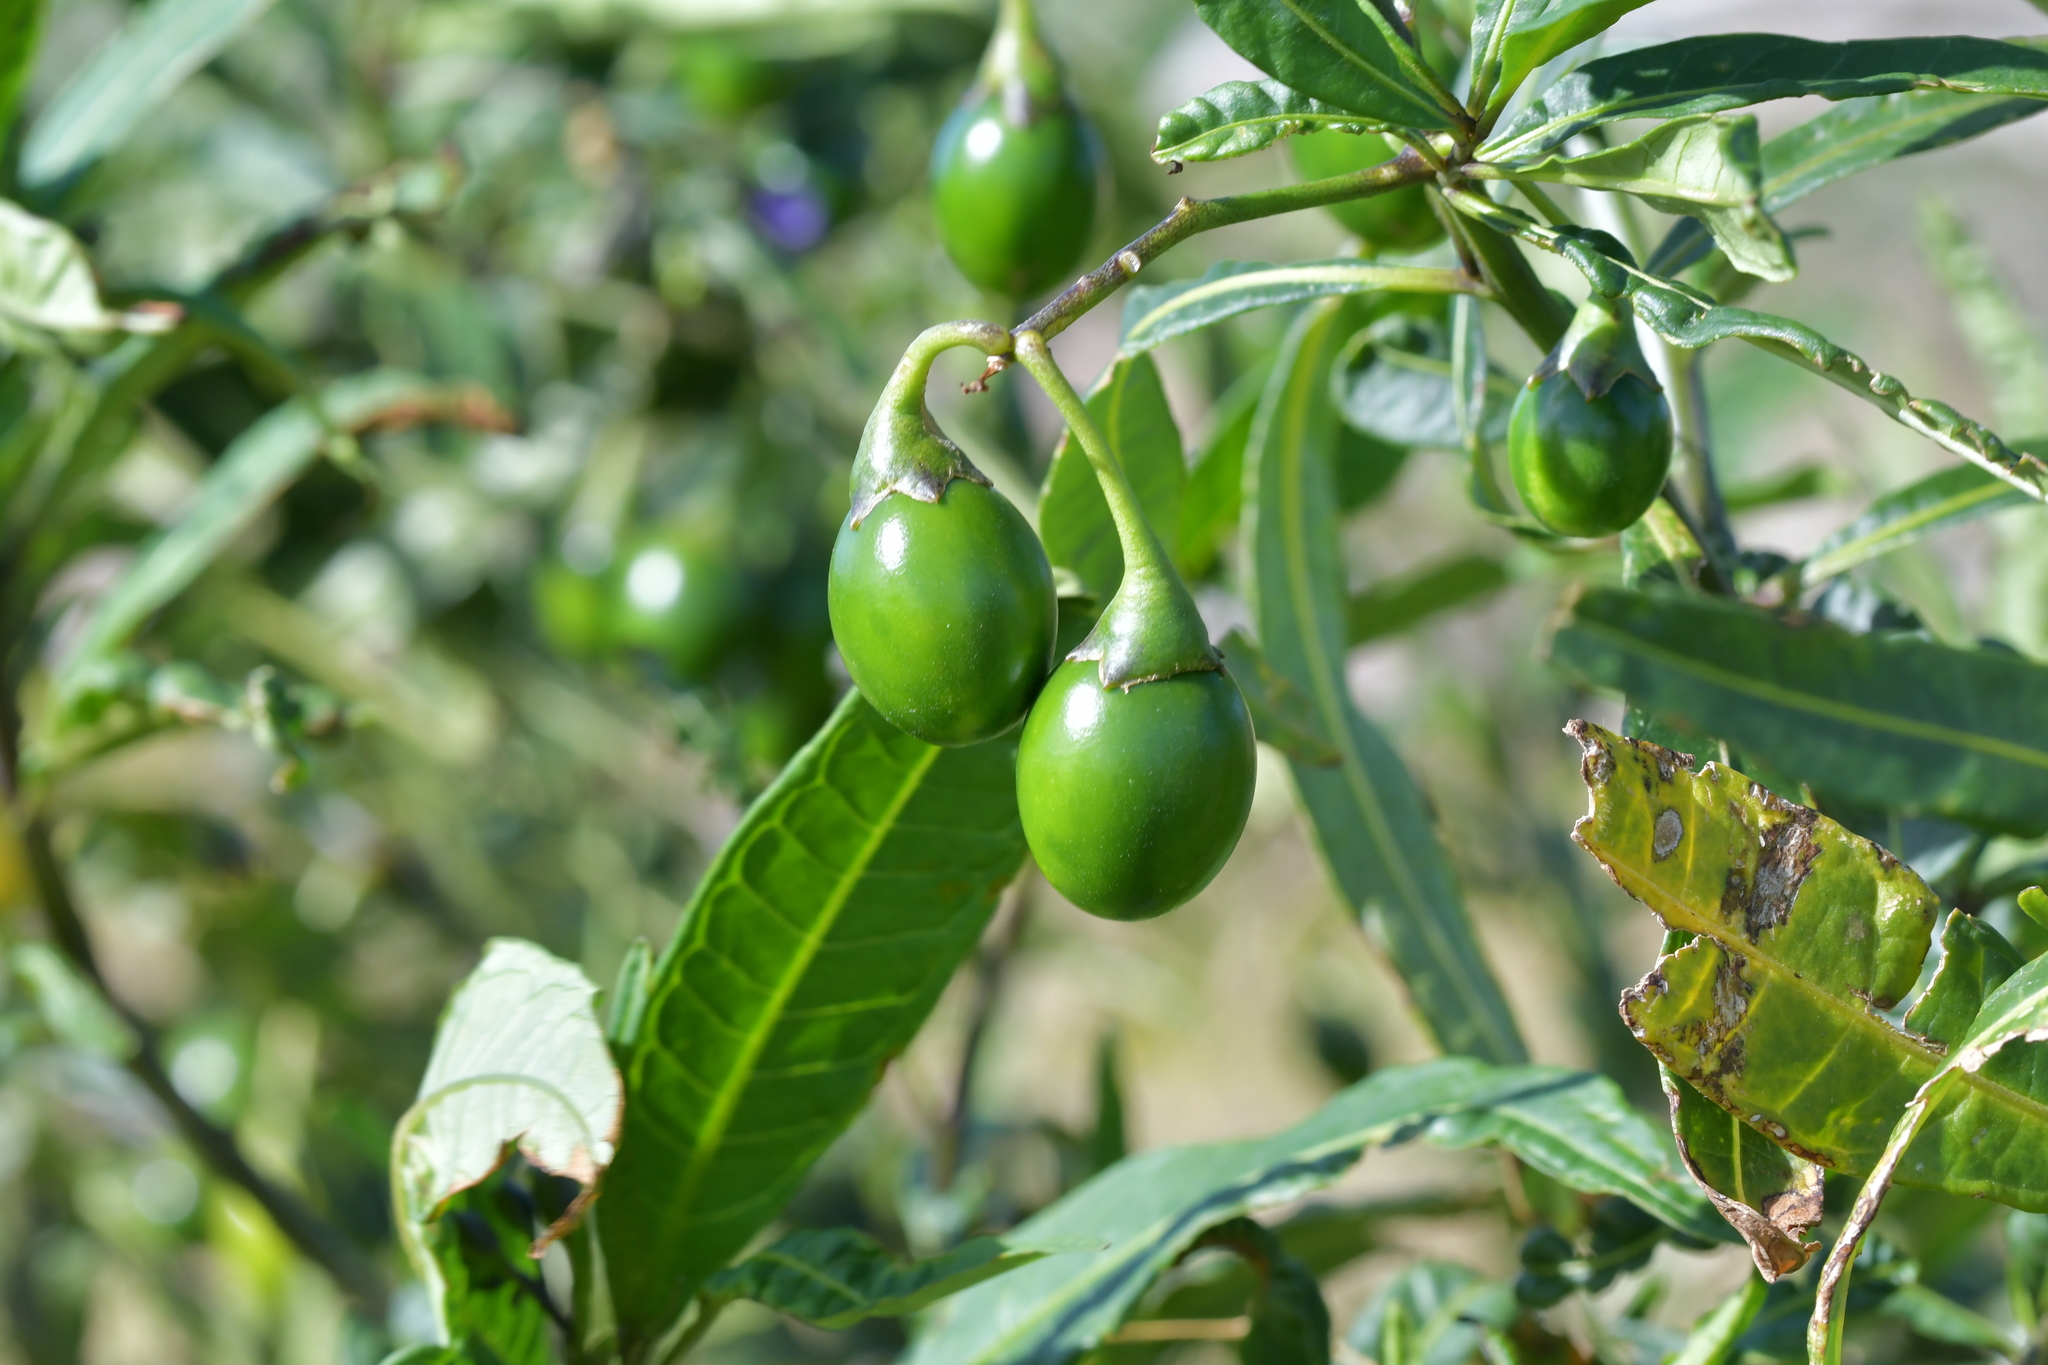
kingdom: Plantae
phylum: Tracheophyta
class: Magnoliopsida
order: Solanales
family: Solanaceae
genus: Solanum
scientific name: Solanum laciniatum
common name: Kangaroo-apple
